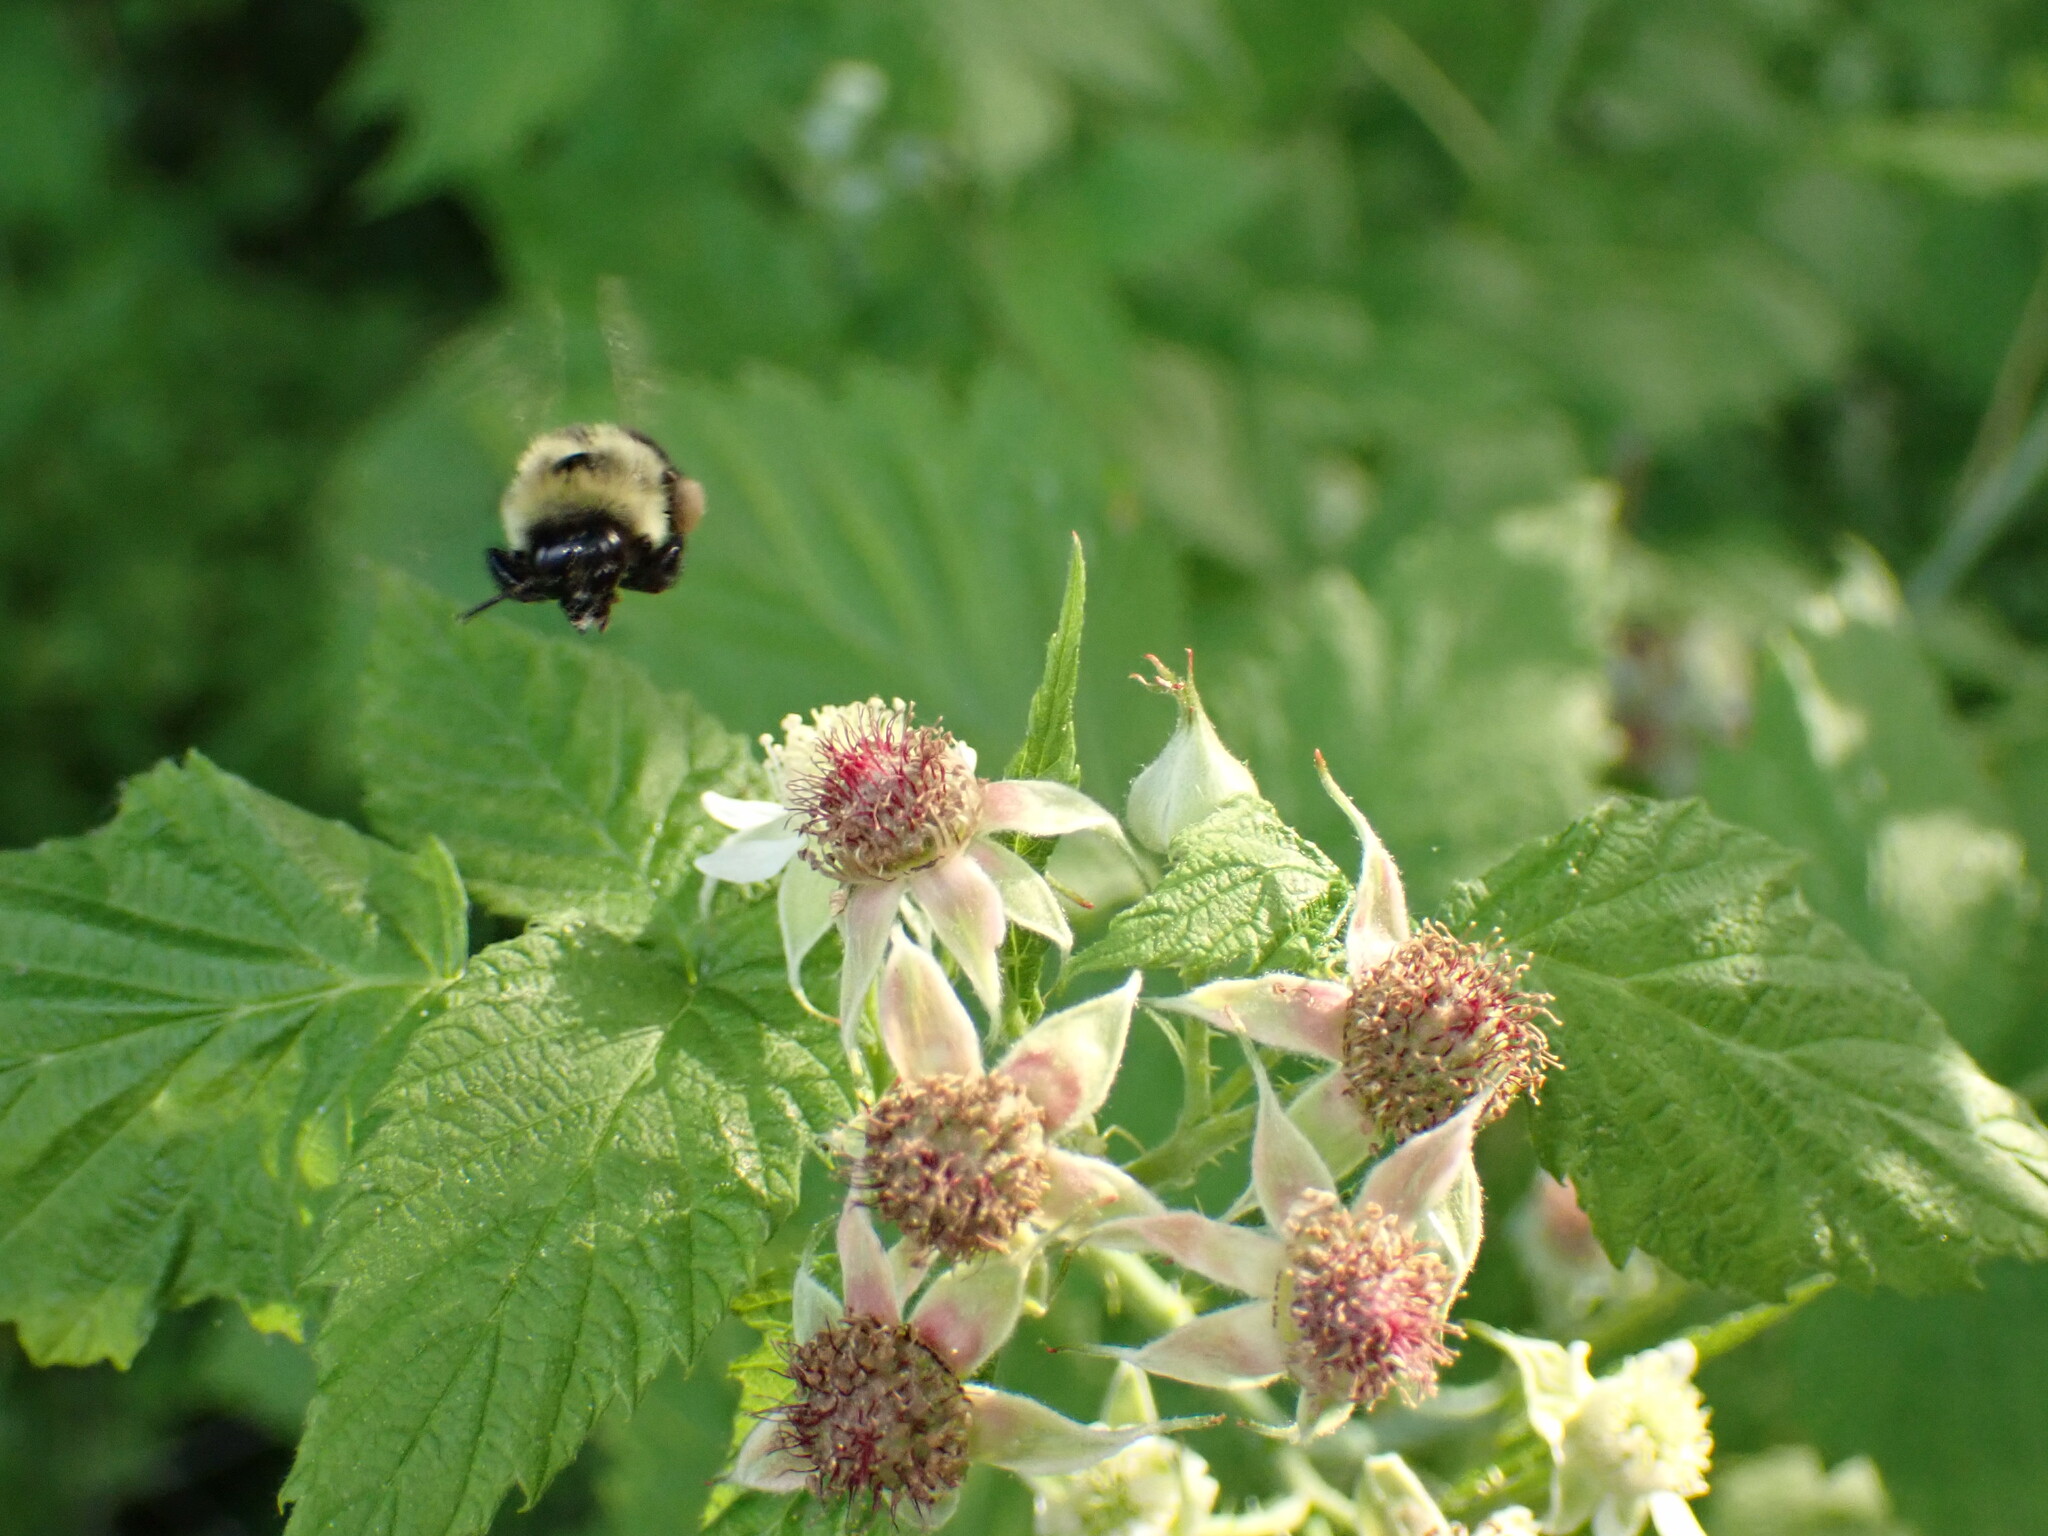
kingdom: Animalia
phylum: Arthropoda
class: Insecta
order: Hymenoptera
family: Apidae
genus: Bombus
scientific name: Bombus impatiens
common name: Common eastern bumble bee
